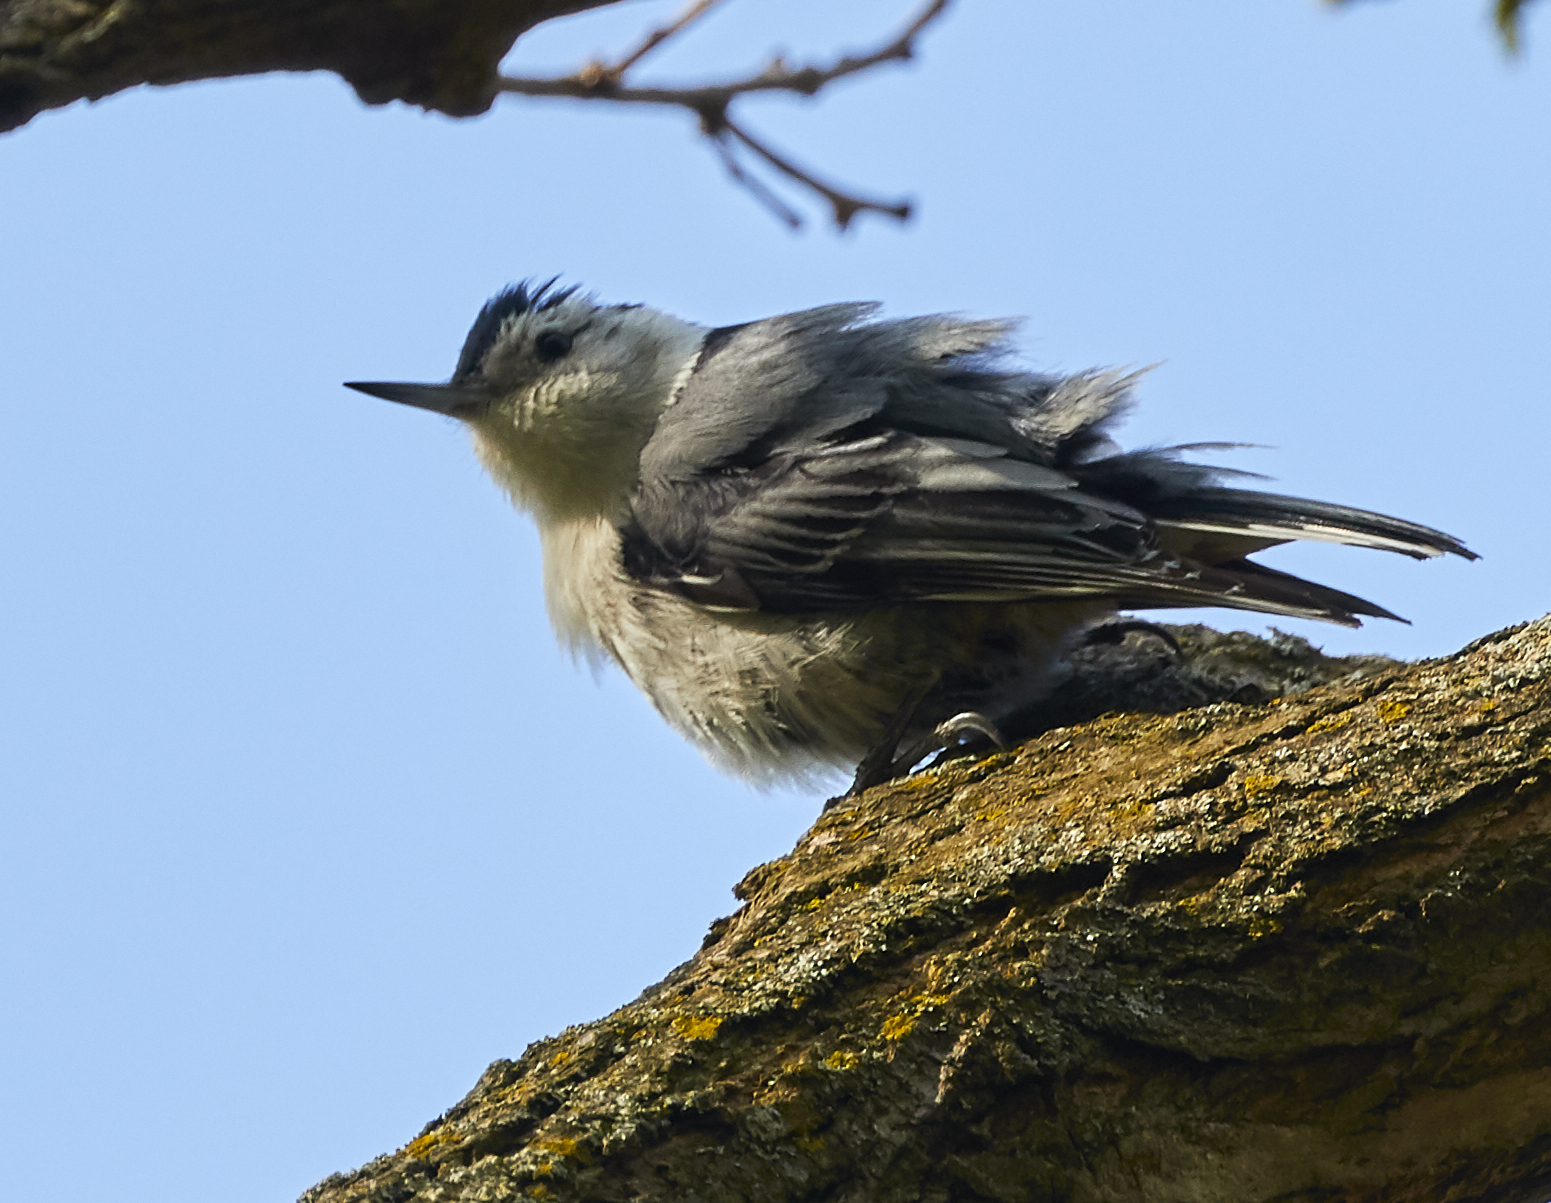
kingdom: Animalia
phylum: Chordata
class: Aves
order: Passeriformes
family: Sittidae
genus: Sitta
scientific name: Sitta carolinensis
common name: White-breasted nuthatch
